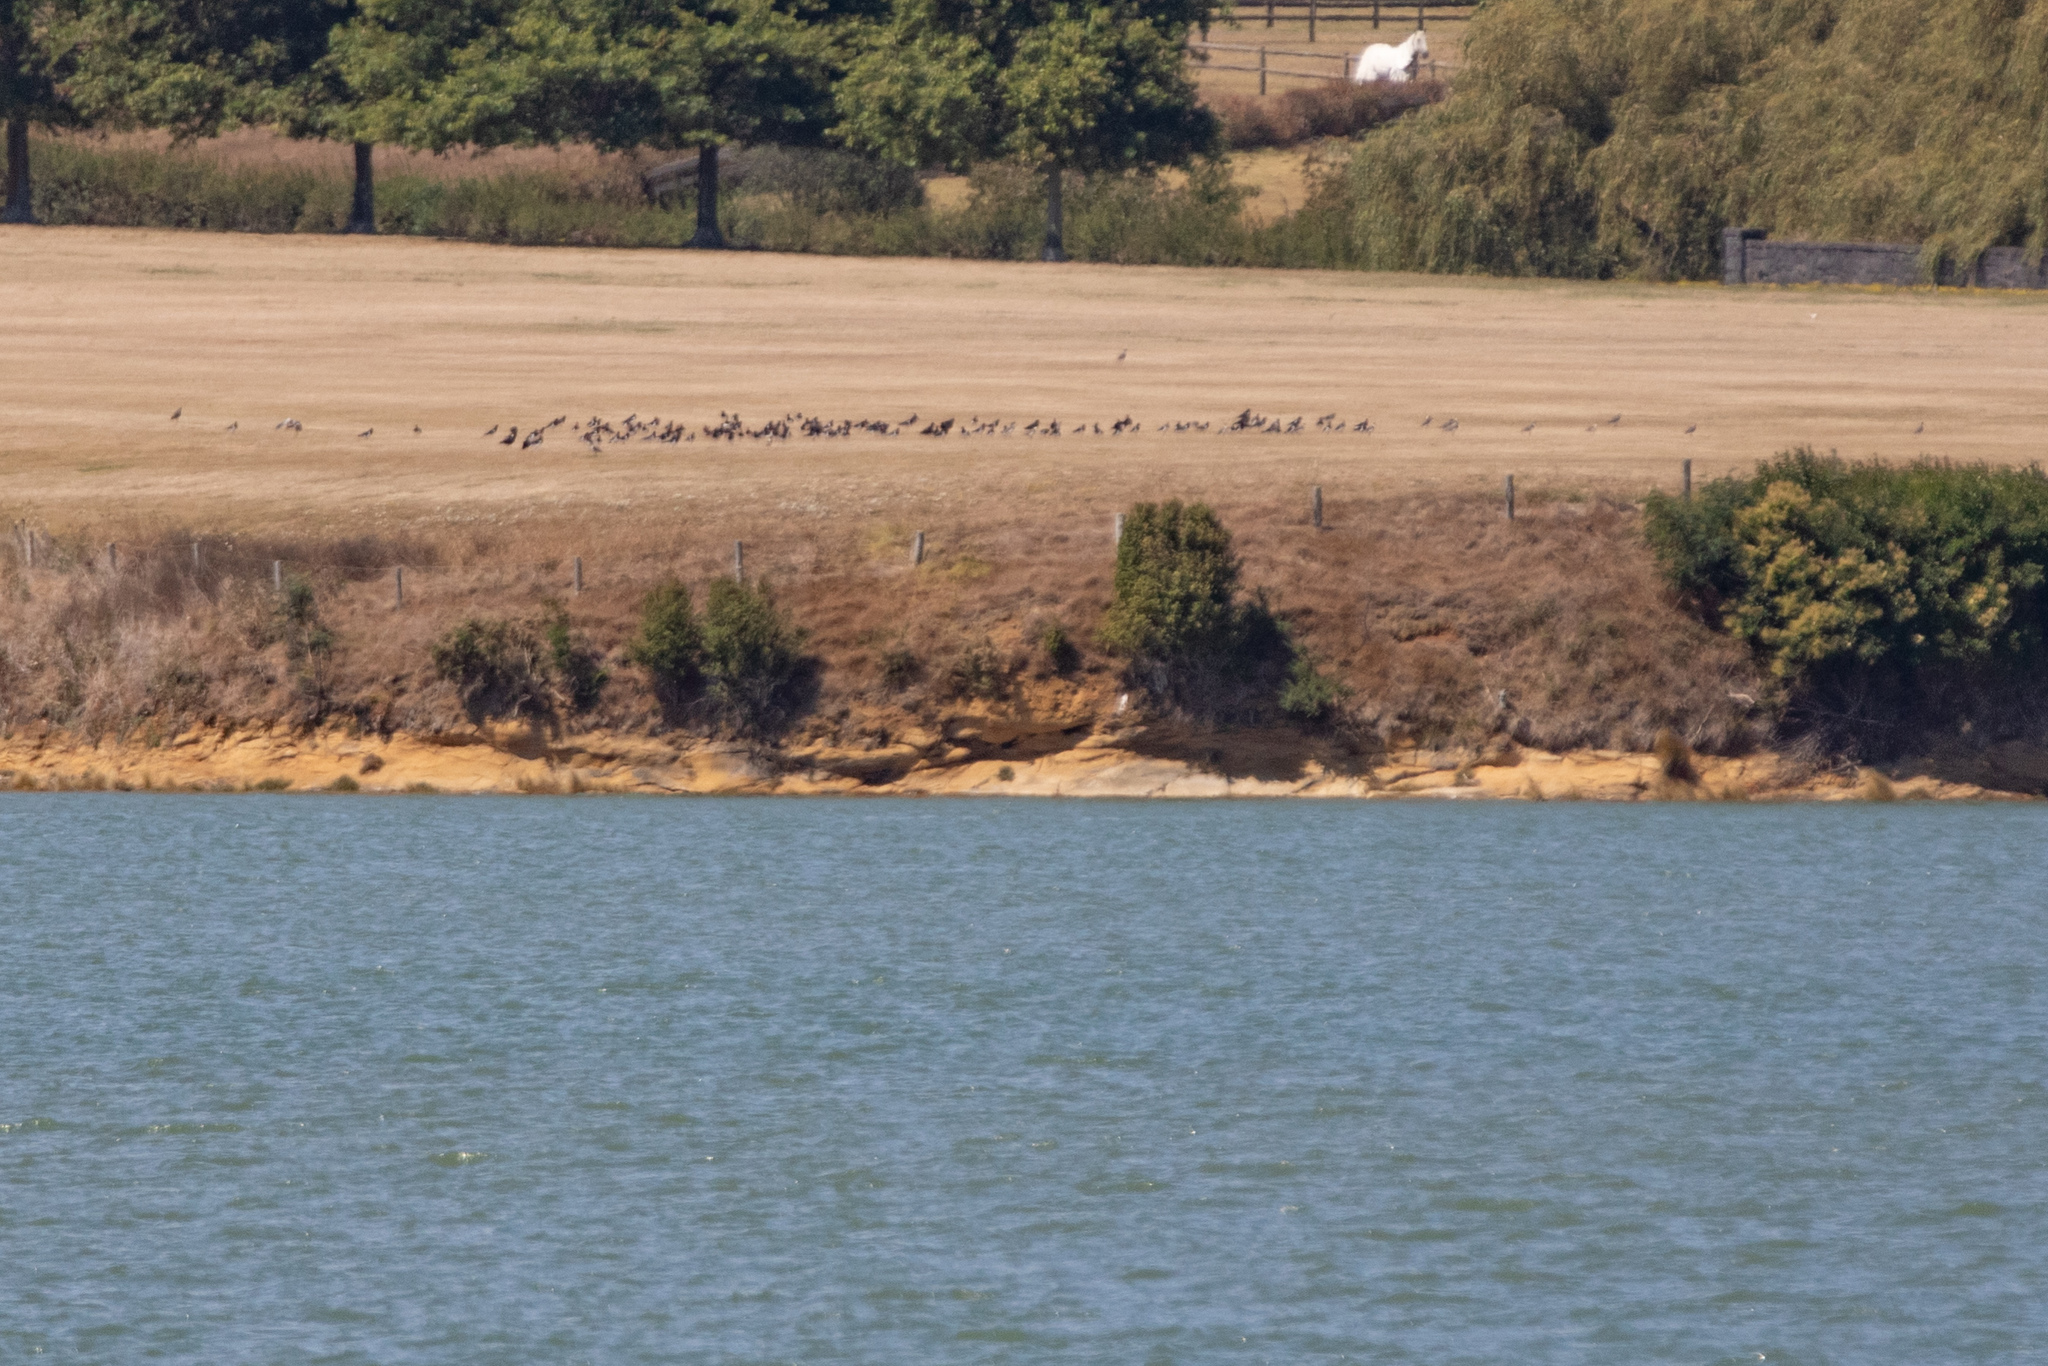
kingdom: Animalia
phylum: Chordata
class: Aves
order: Charadriiformes
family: Haematopodidae
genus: Haematopus
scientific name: Haematopus finschi
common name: South island oystercatcher
